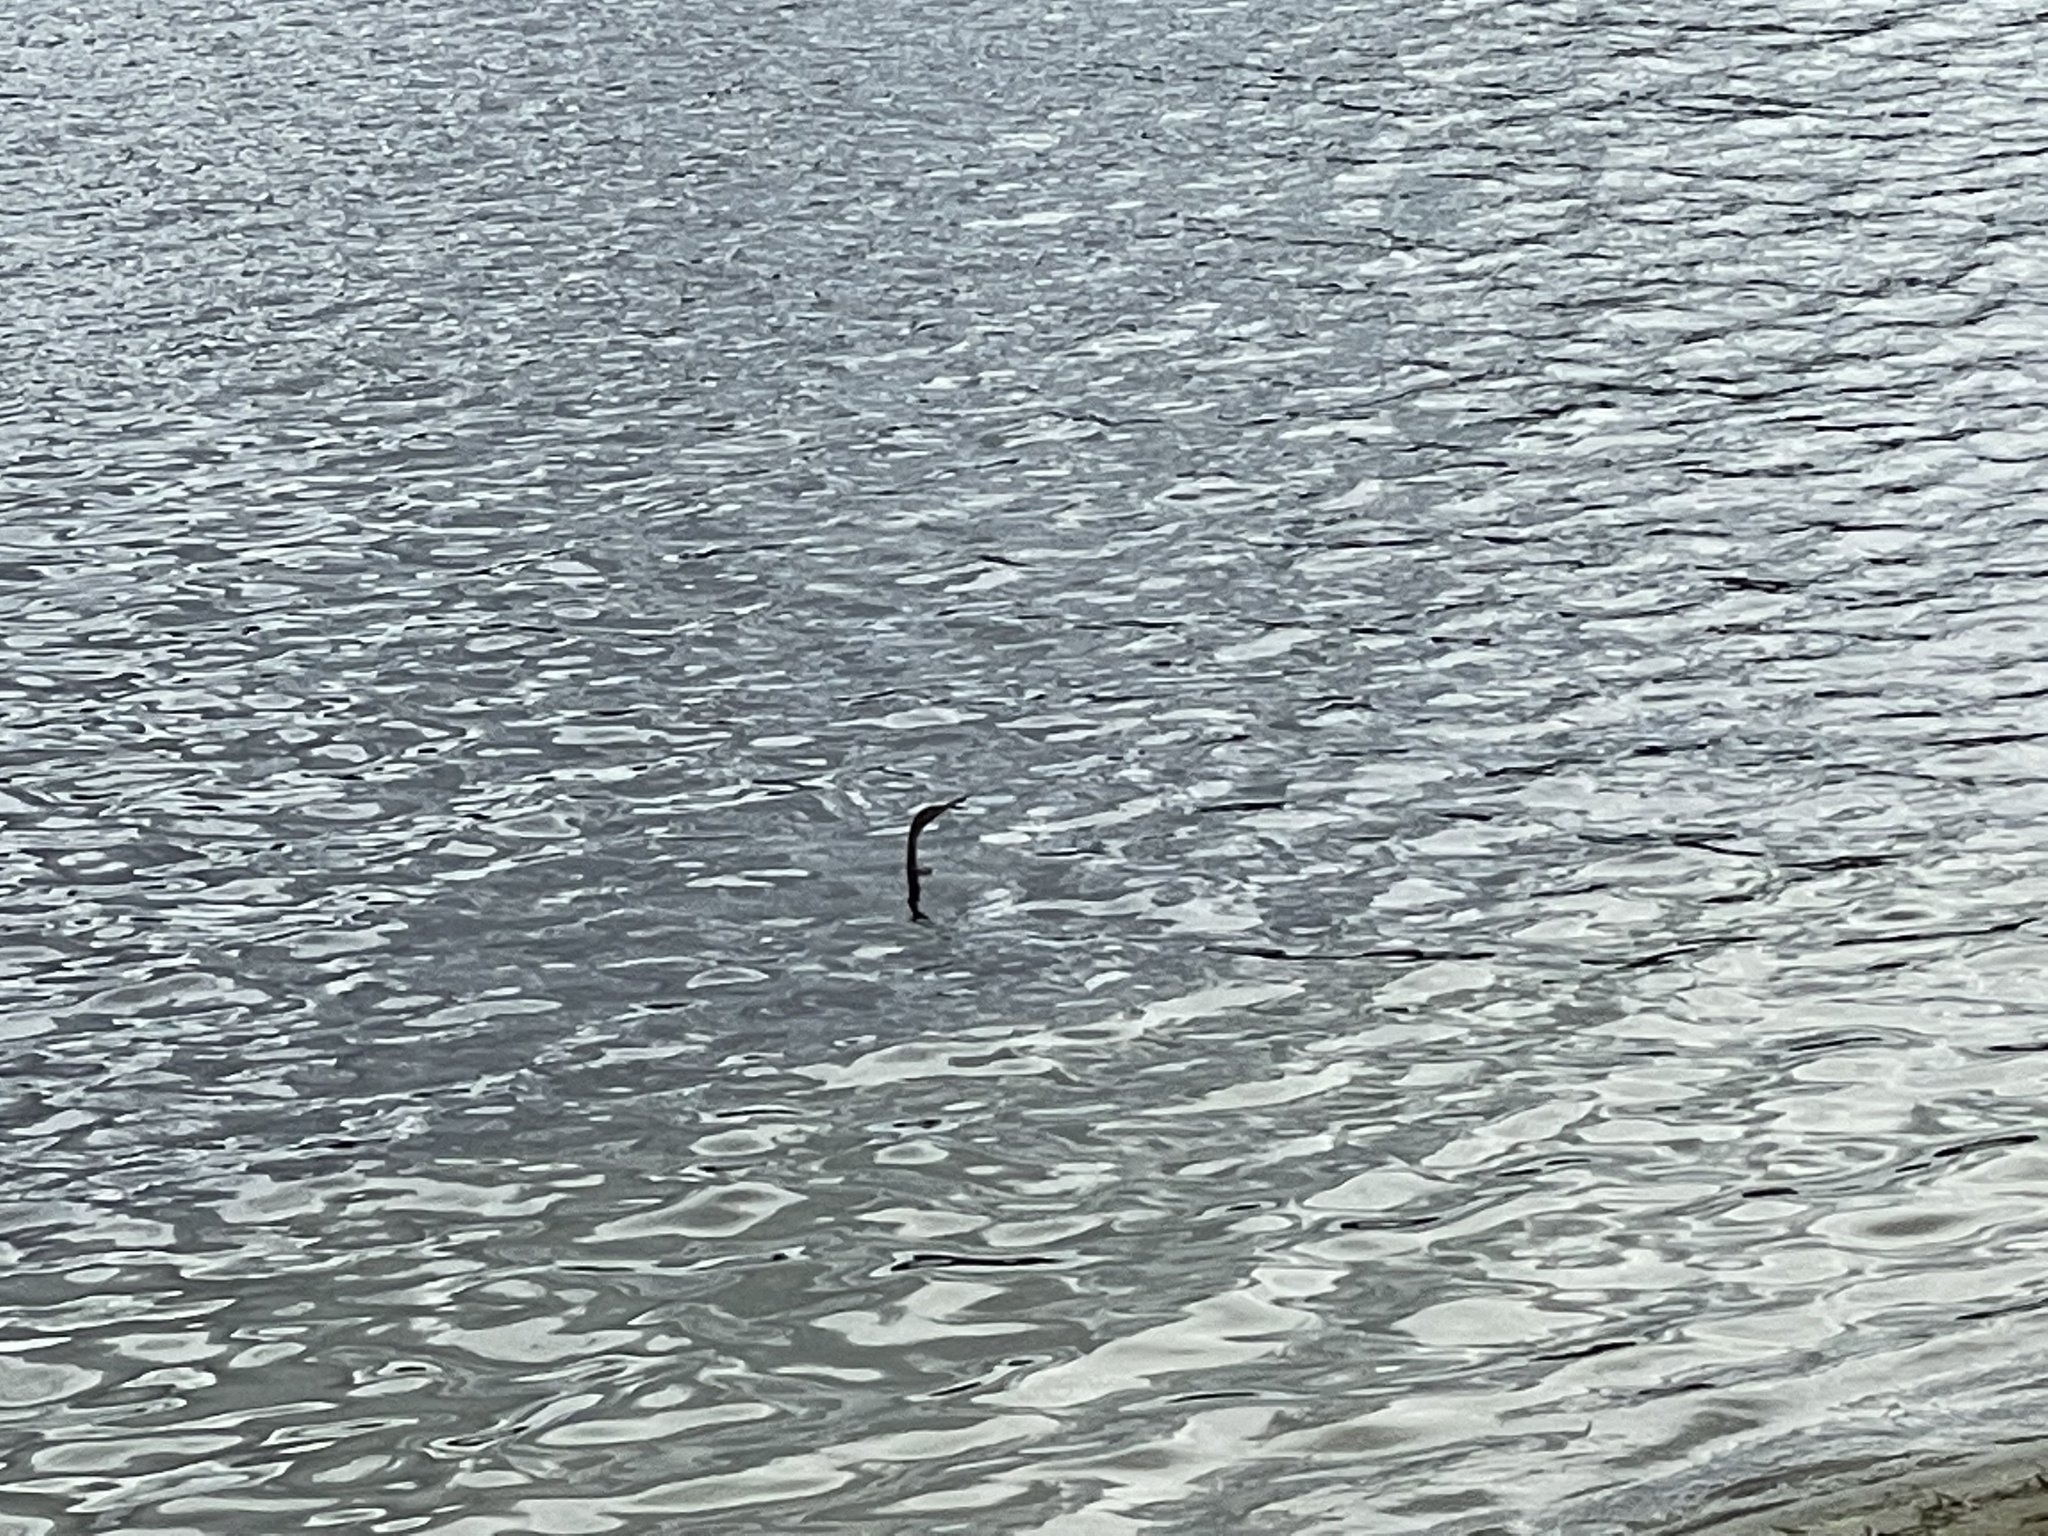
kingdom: Animalia
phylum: Chordata
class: Aves
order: Suliformes
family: Anhingidae
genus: Anhinga
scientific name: Anhinga anhinga
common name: Anhinga
